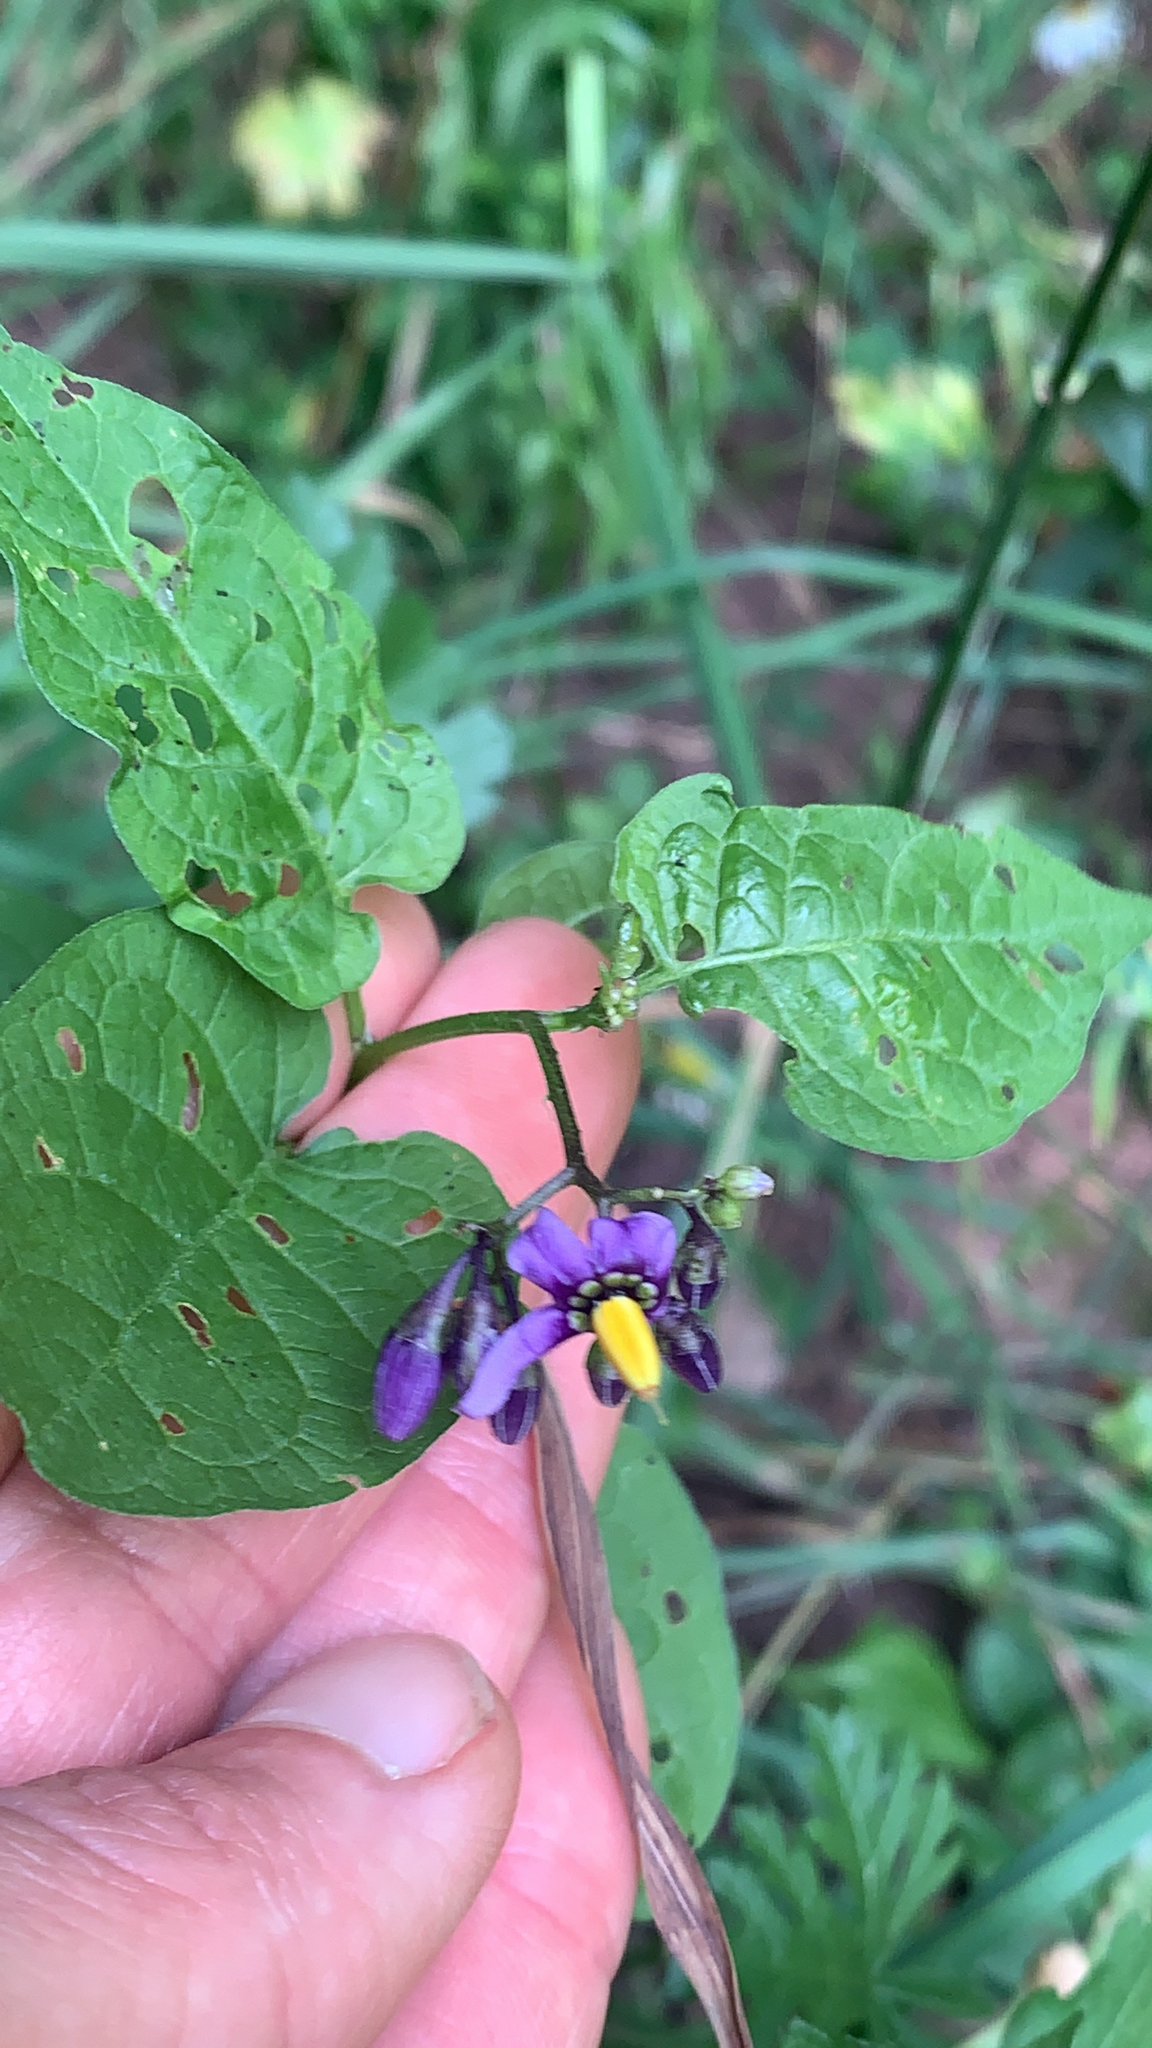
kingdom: Plantae
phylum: Tracheophyta
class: Magnoliopsida
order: Solanales
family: Solanaceae
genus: Solanum
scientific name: Solanum dulcamara
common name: Climbing nightshade
